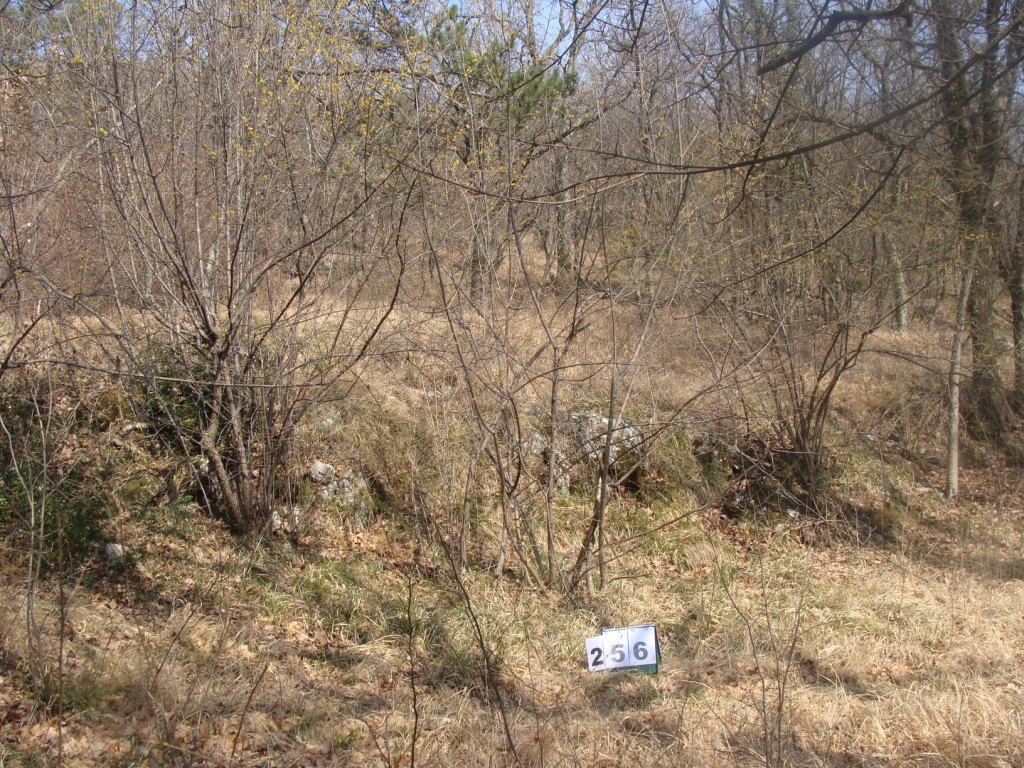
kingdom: Plantae
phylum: Tracheophyta
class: Magnoliopsida
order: Cornales
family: Cornaceae
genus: Cornus
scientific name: Cornus mas
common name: Cornelian-cherry
